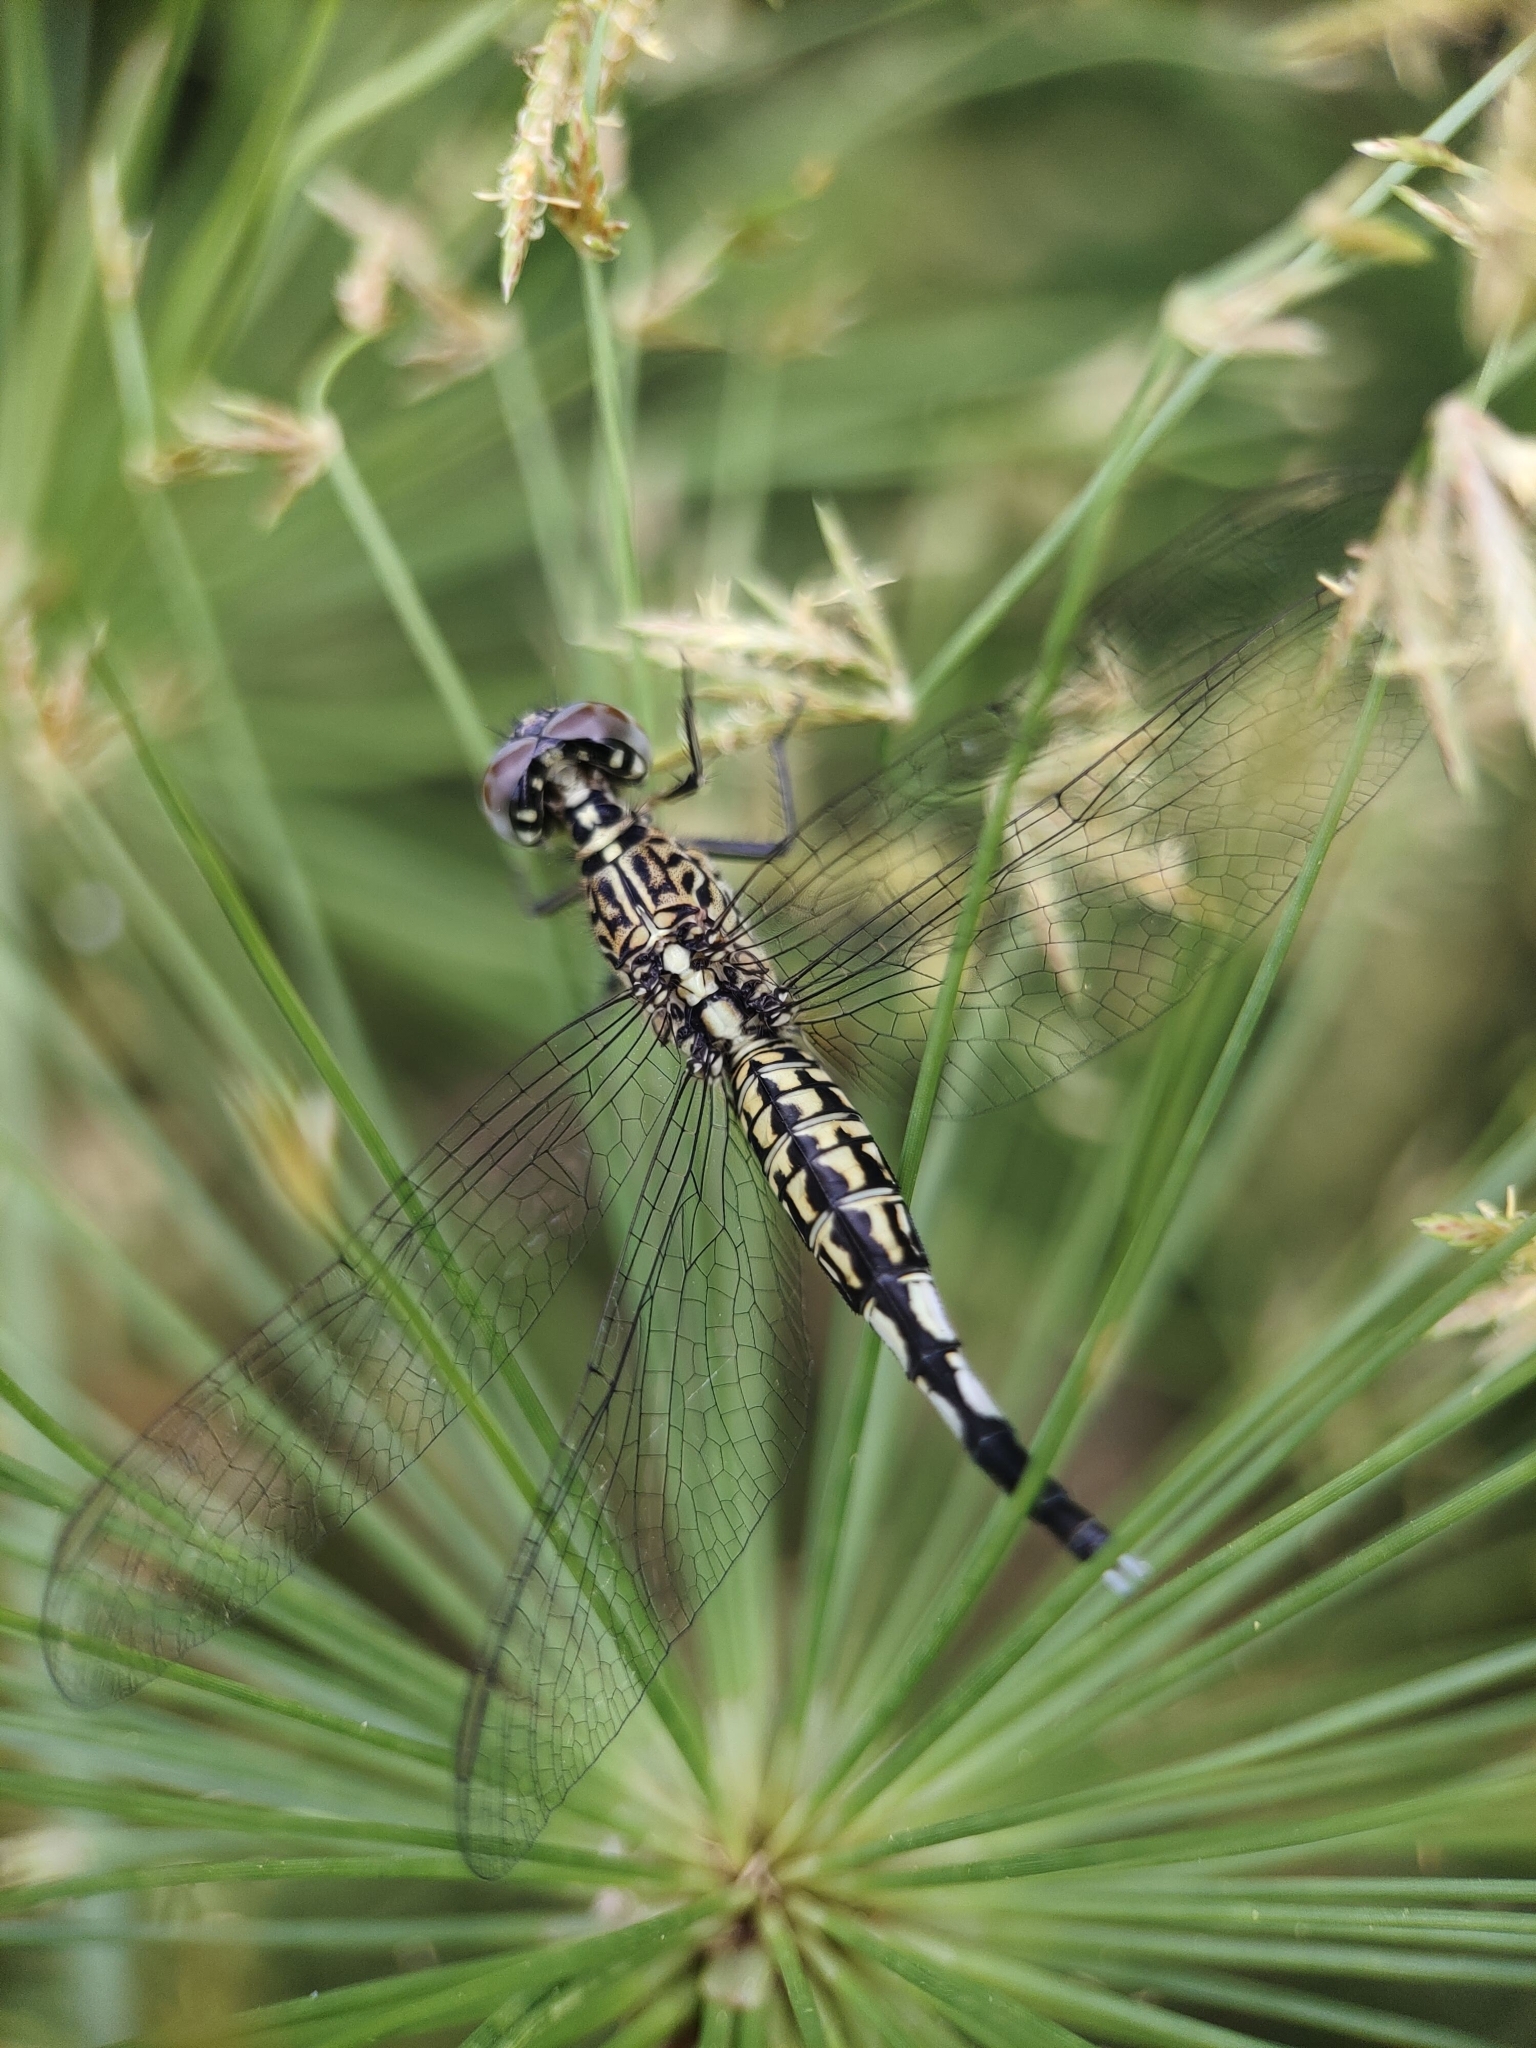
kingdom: Animalia
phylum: Arthropoda
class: Insecta
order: Odonata
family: Libellulidae
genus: Acisoma
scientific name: Acisoma panorpoides
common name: Asian pintail
